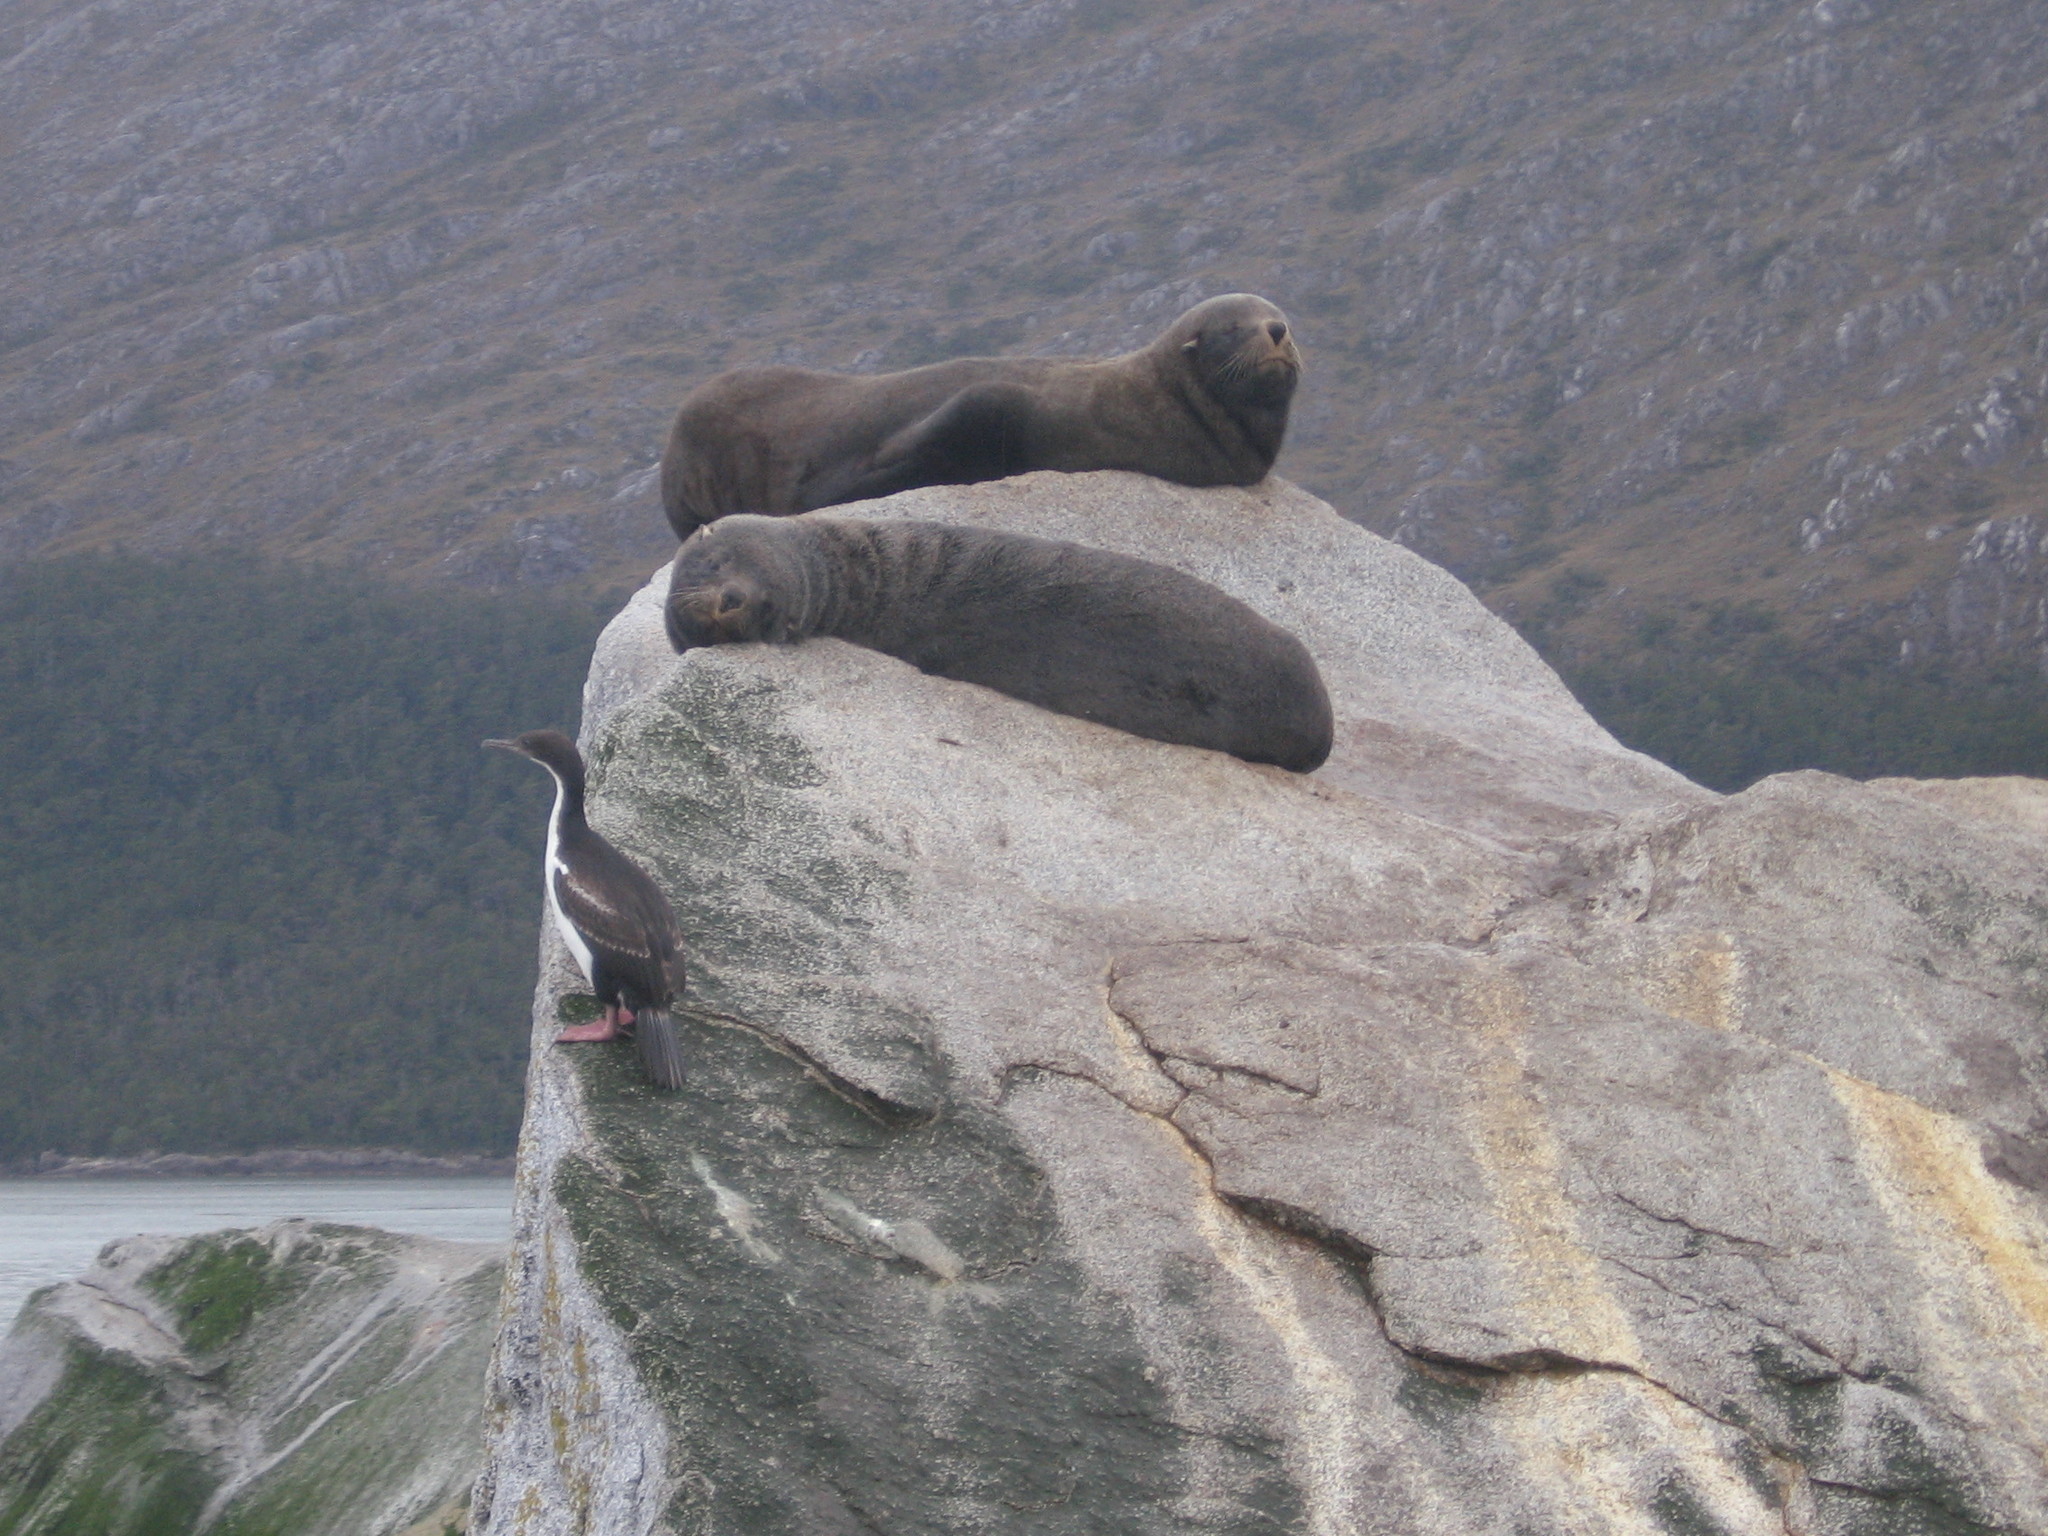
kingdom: Animalia
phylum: Chordata
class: Mammalia
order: Carnivora
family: Otariidae
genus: Arctocephalus
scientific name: Arctocephalus australis
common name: South american fur seal
